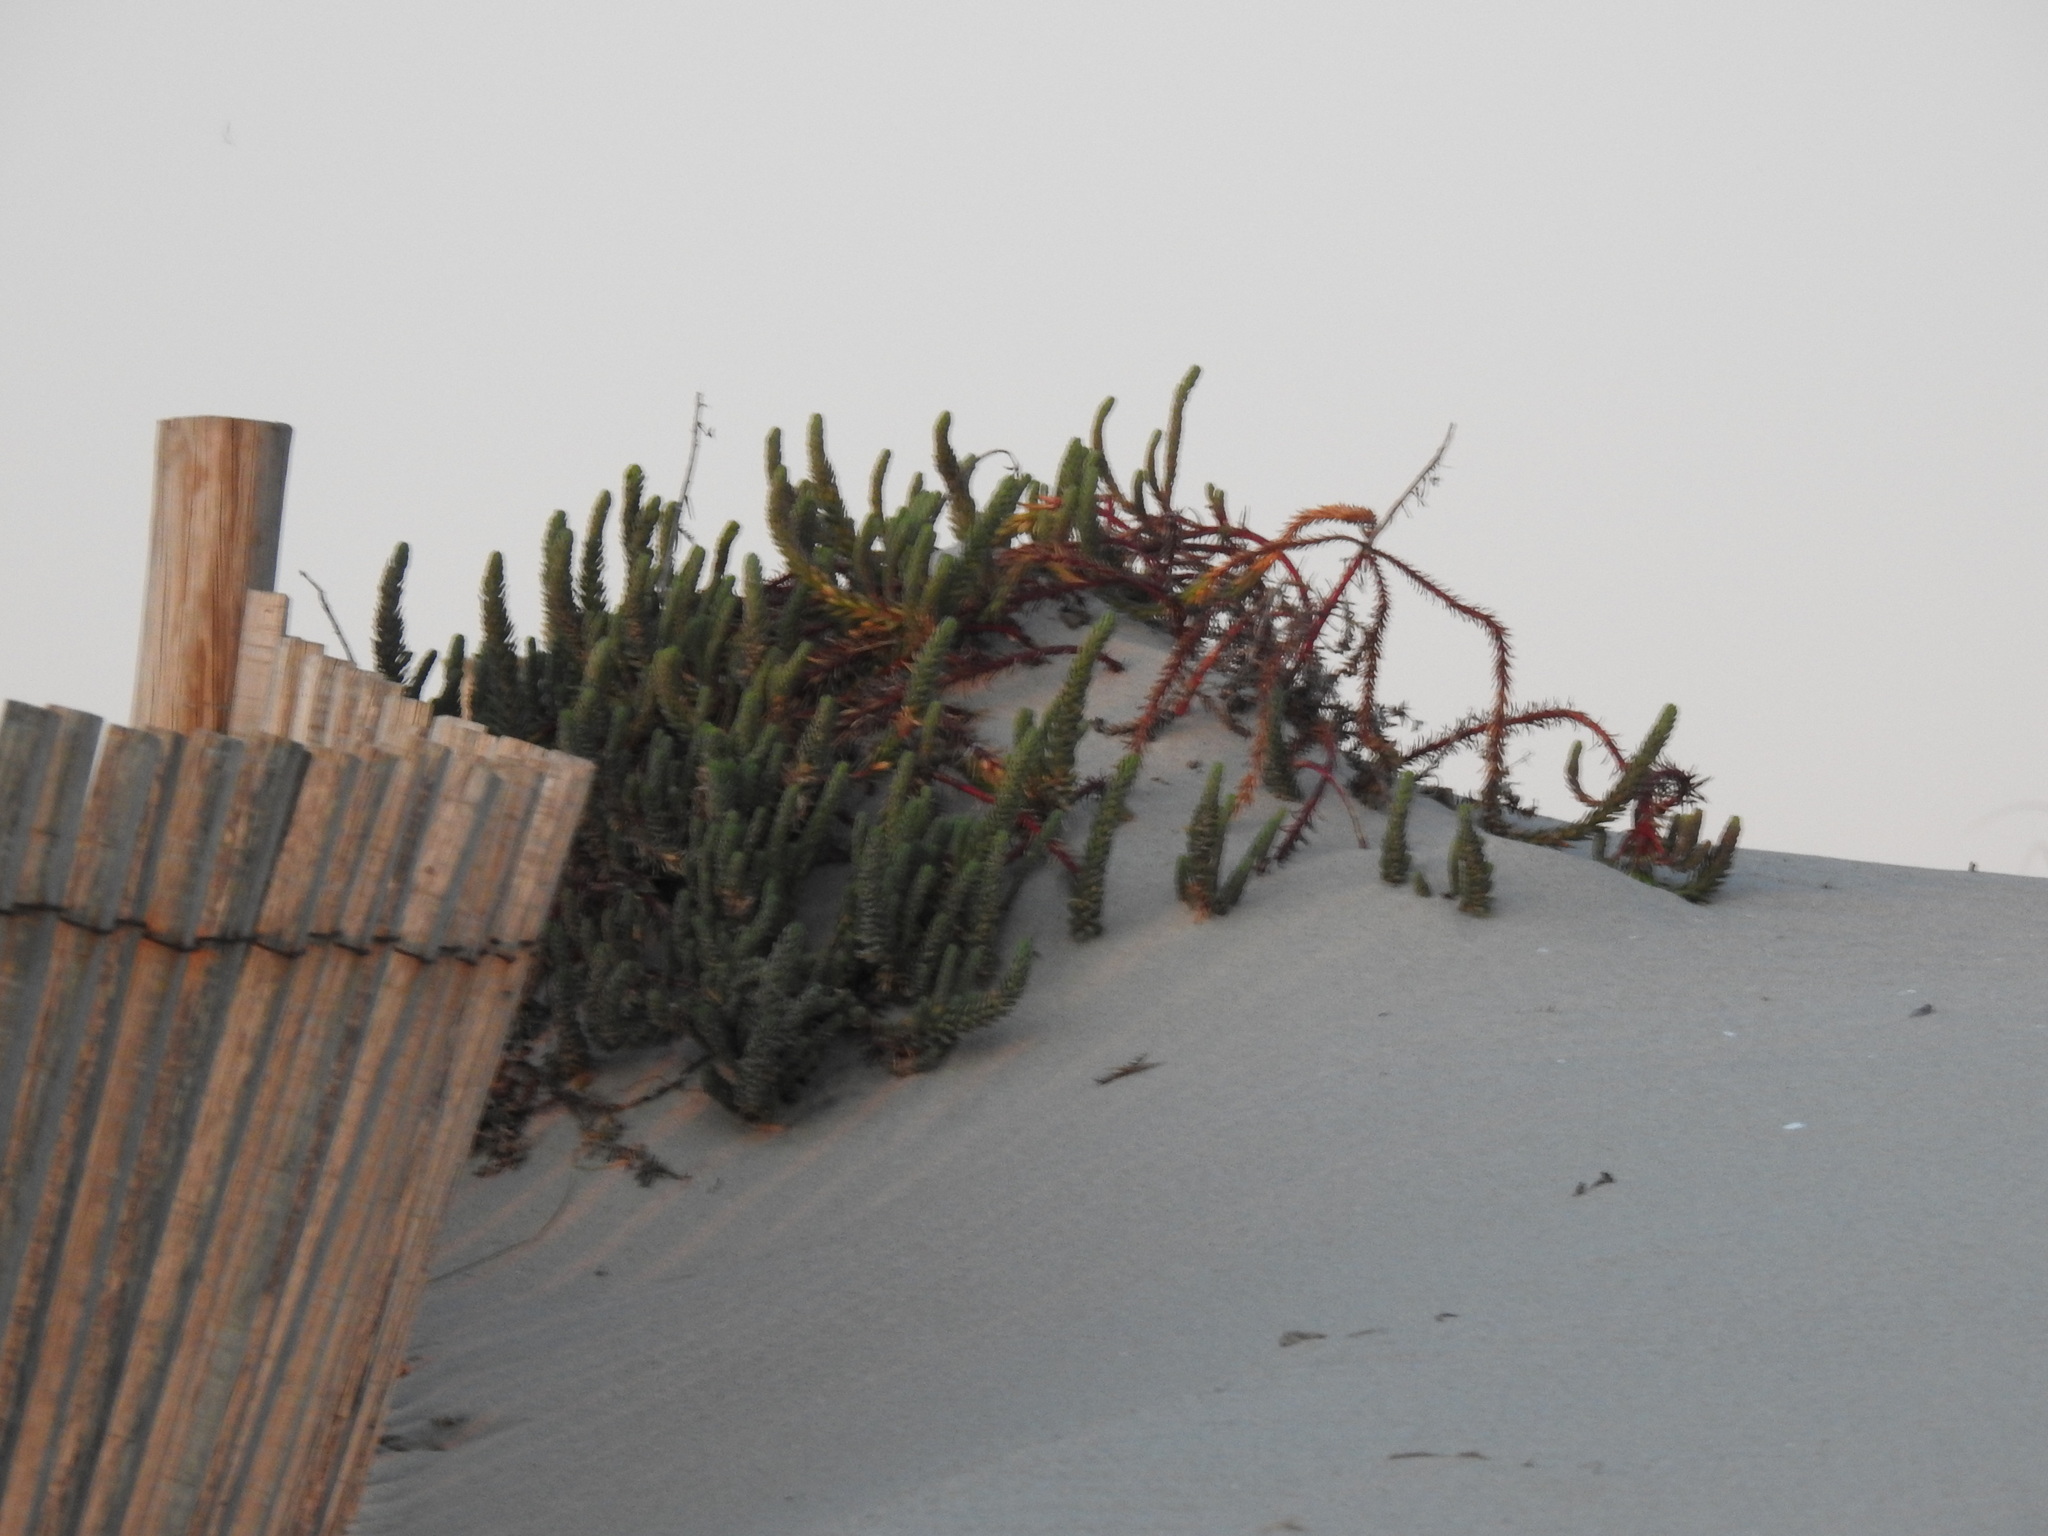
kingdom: Plantae
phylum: Tracheophyta
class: Magnoliopsida
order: Malpighiales
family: Euphorbiaceae
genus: Euphorbia
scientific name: Euphorbia paralias
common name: Sea spurge
